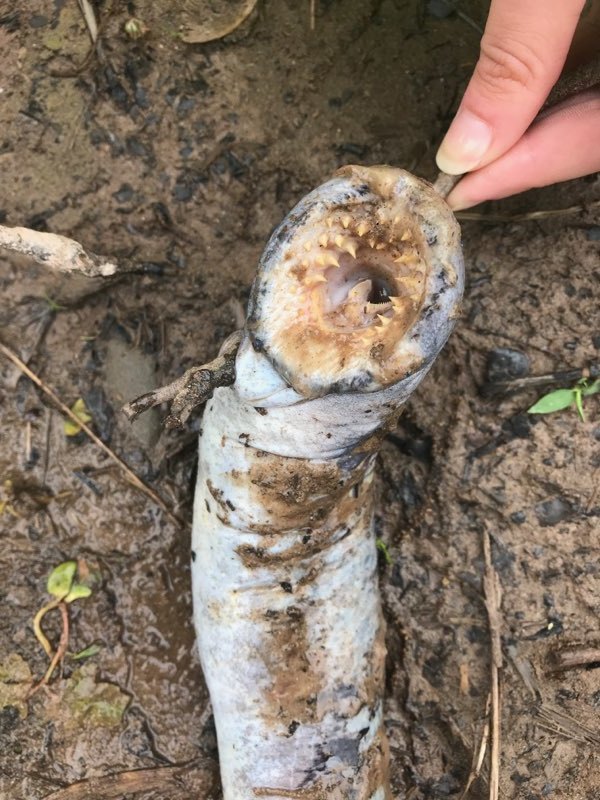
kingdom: Animalia
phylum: Chordata
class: Petromyzonti
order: Petromyzontiformes
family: Petromyzontidae
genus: Petromyzon
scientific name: Petromyzon marinus
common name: Sea lamprey
